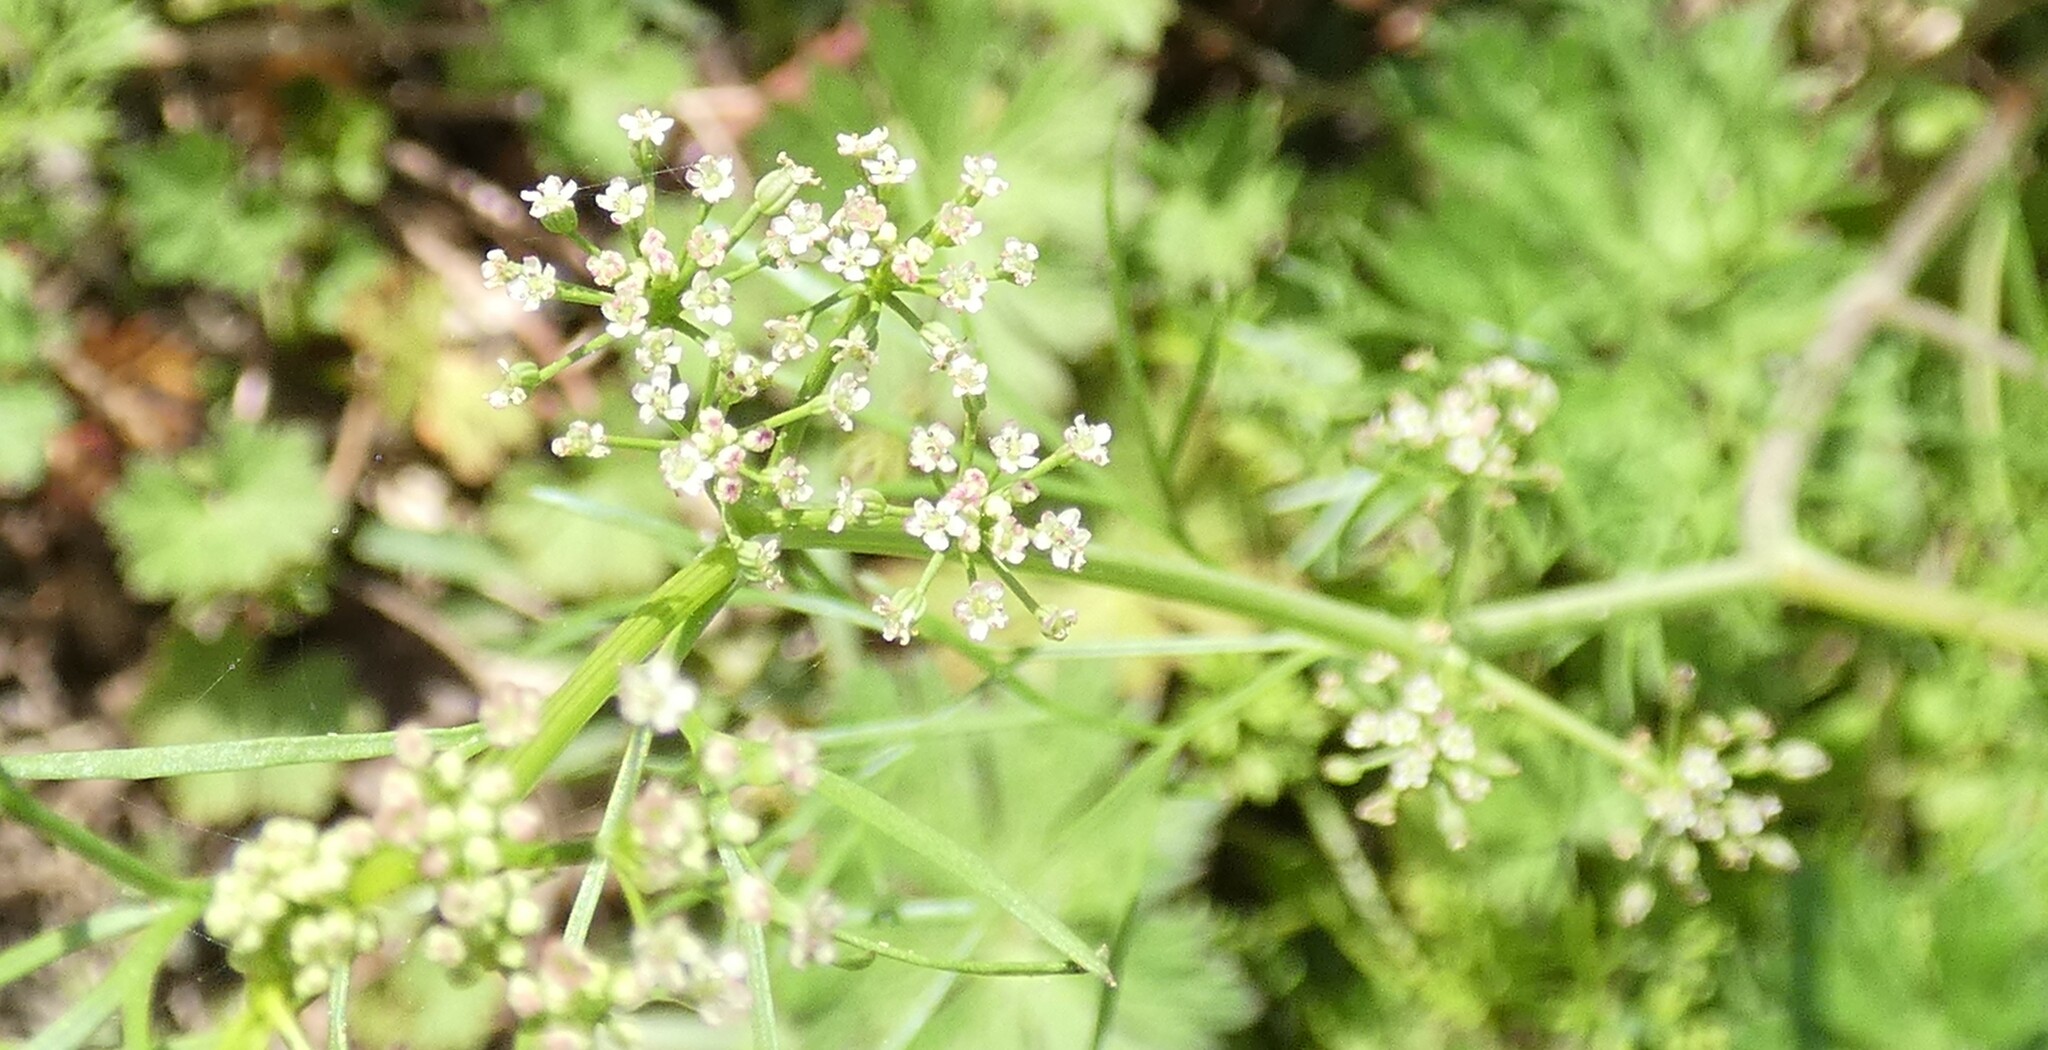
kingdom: Plantae
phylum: Tracheophyta
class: Magnoliopsida
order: Apiales
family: Apiaceae
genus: Ptilimnium
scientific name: Ptilimnium capillaceum
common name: Herbwilliam
